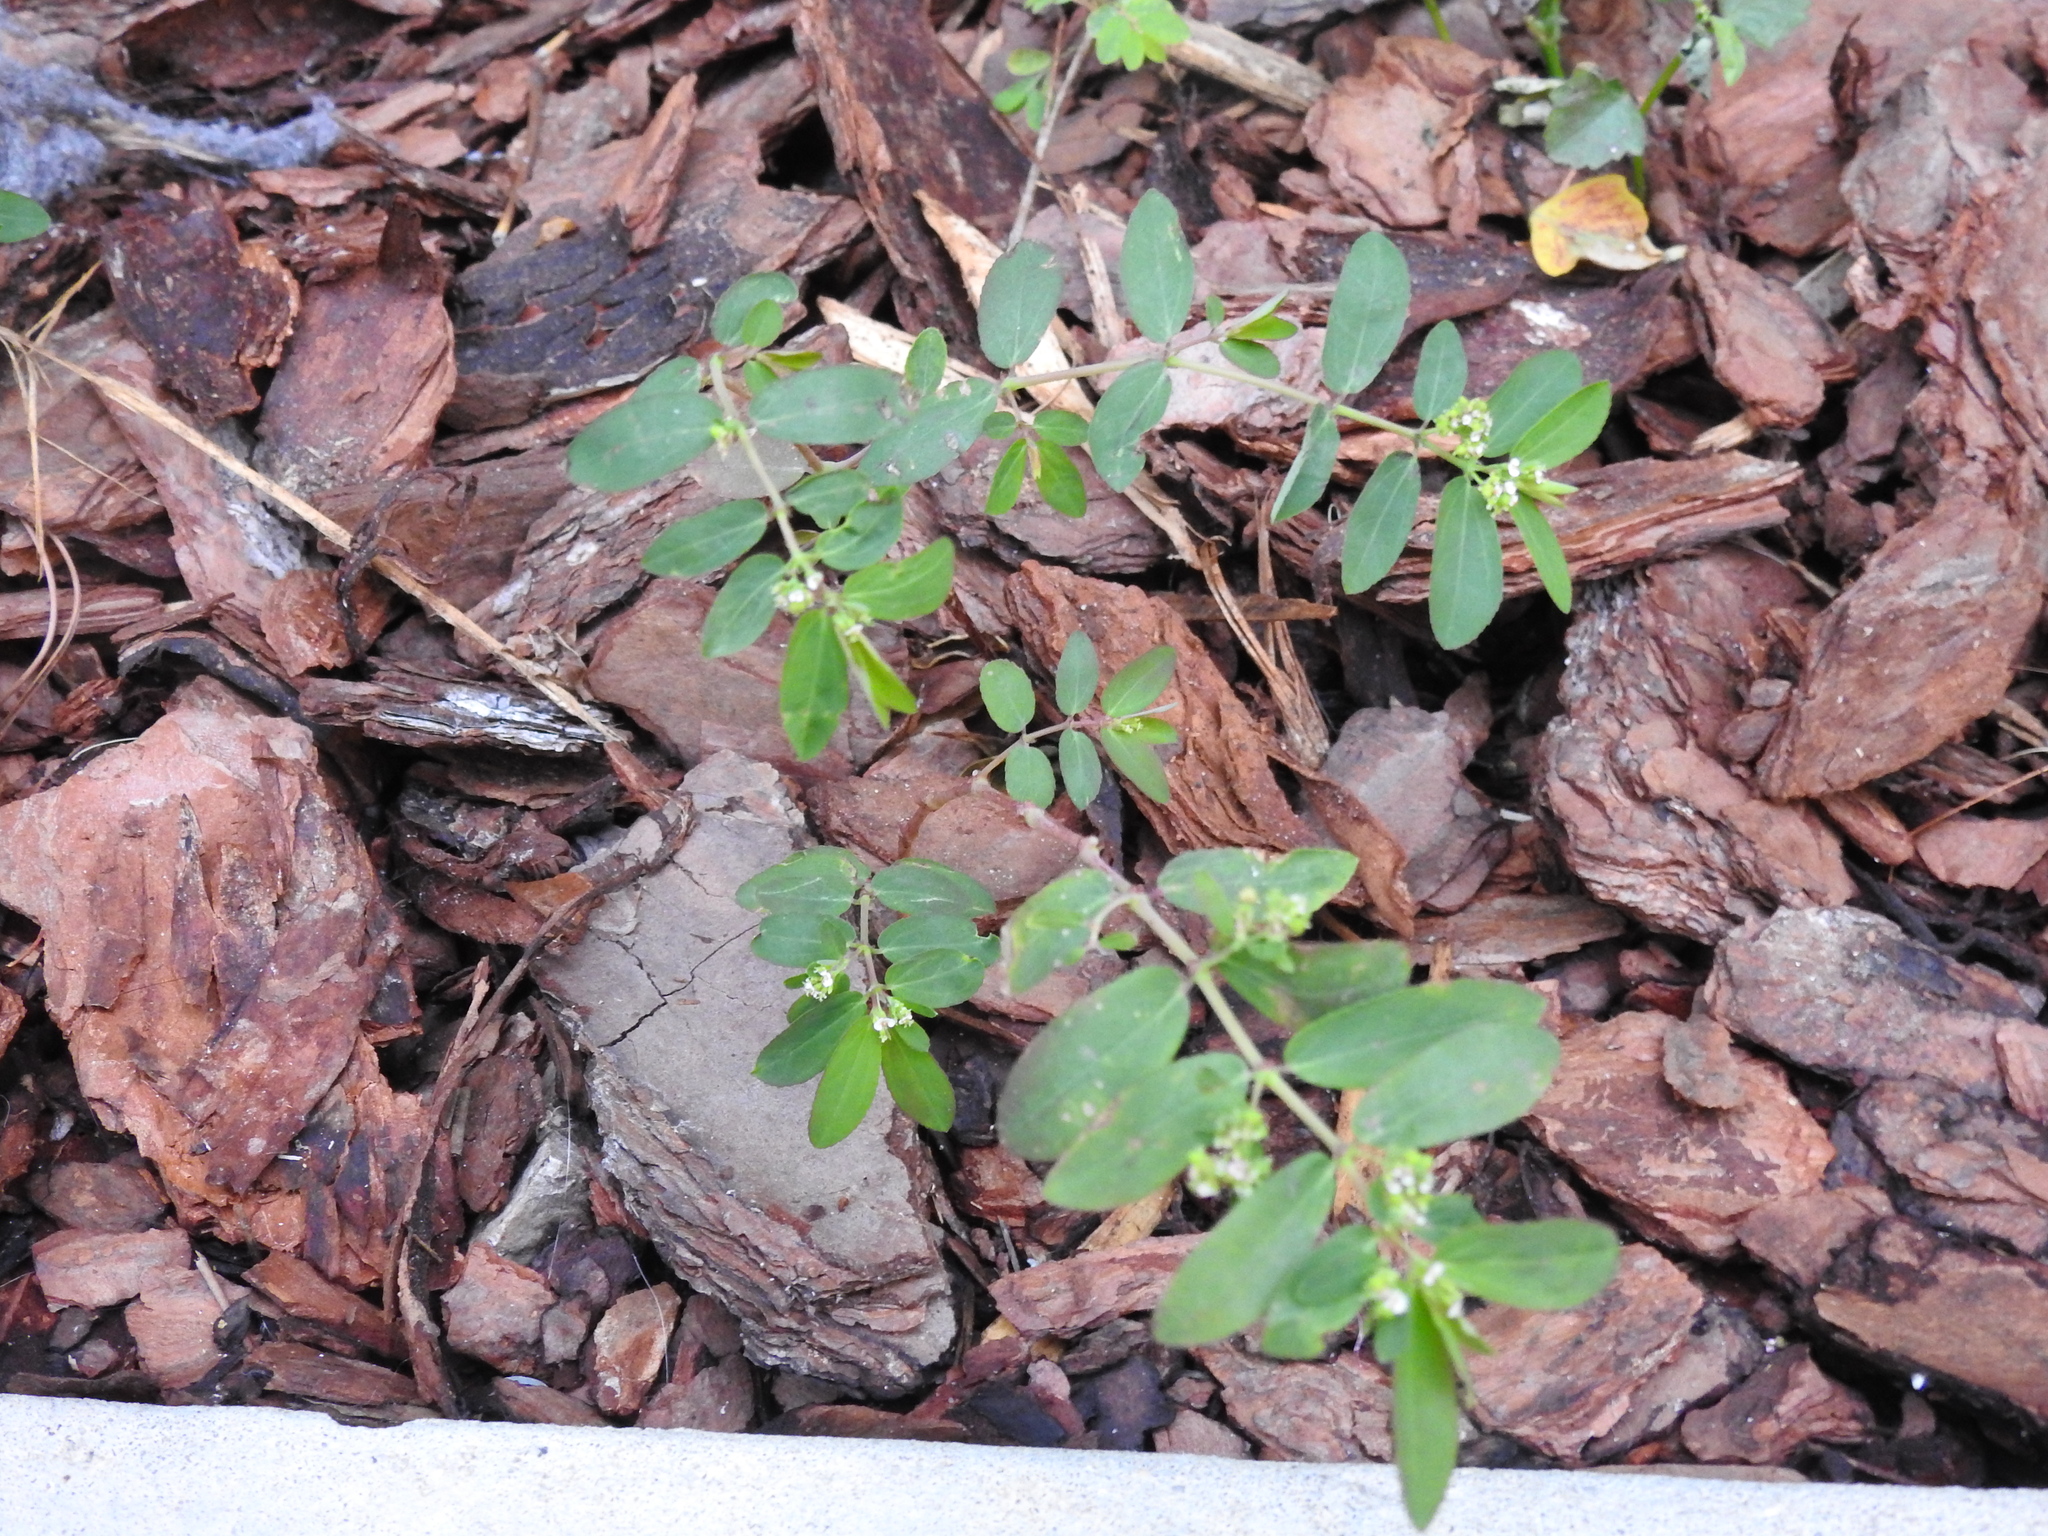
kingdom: Plantae
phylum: Tracheophyta
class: Magnoliopsida
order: Malpighiales
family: Euphorbiaceae
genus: Euphorbia
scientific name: Euphorbia hypericifolia
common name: Graceful sandmat
